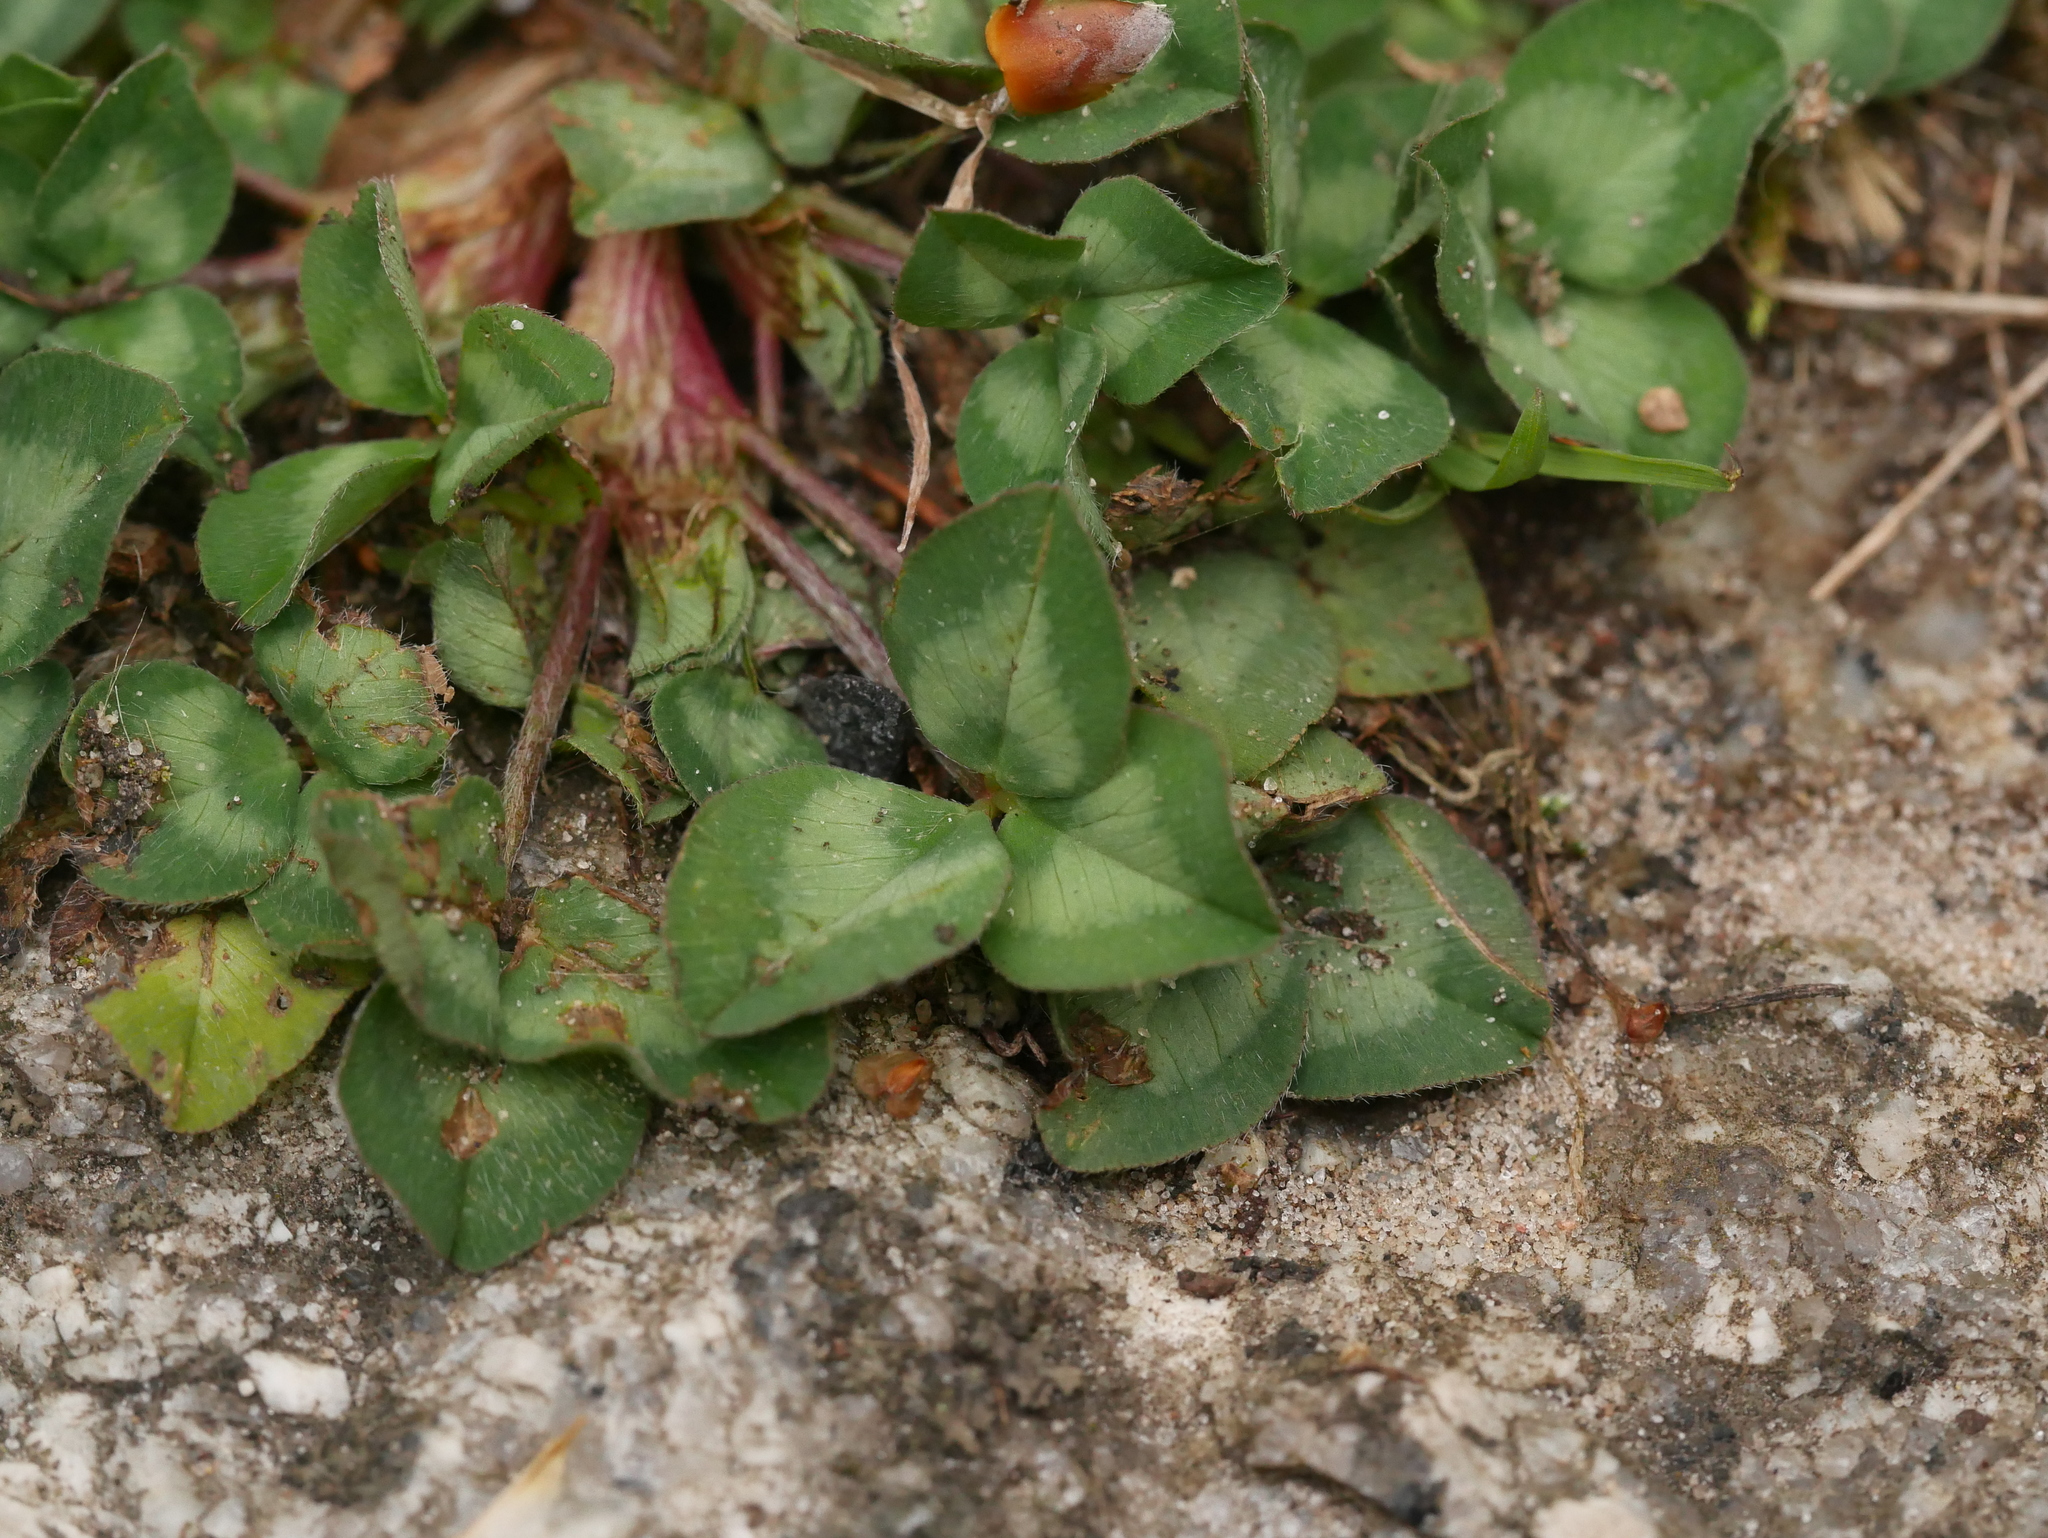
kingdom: Plantae
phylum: Tracheophyta
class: Magnoliopsida
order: Fabales
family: Fabaceae
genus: Trifolium
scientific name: Trifolium repens
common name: White clover
